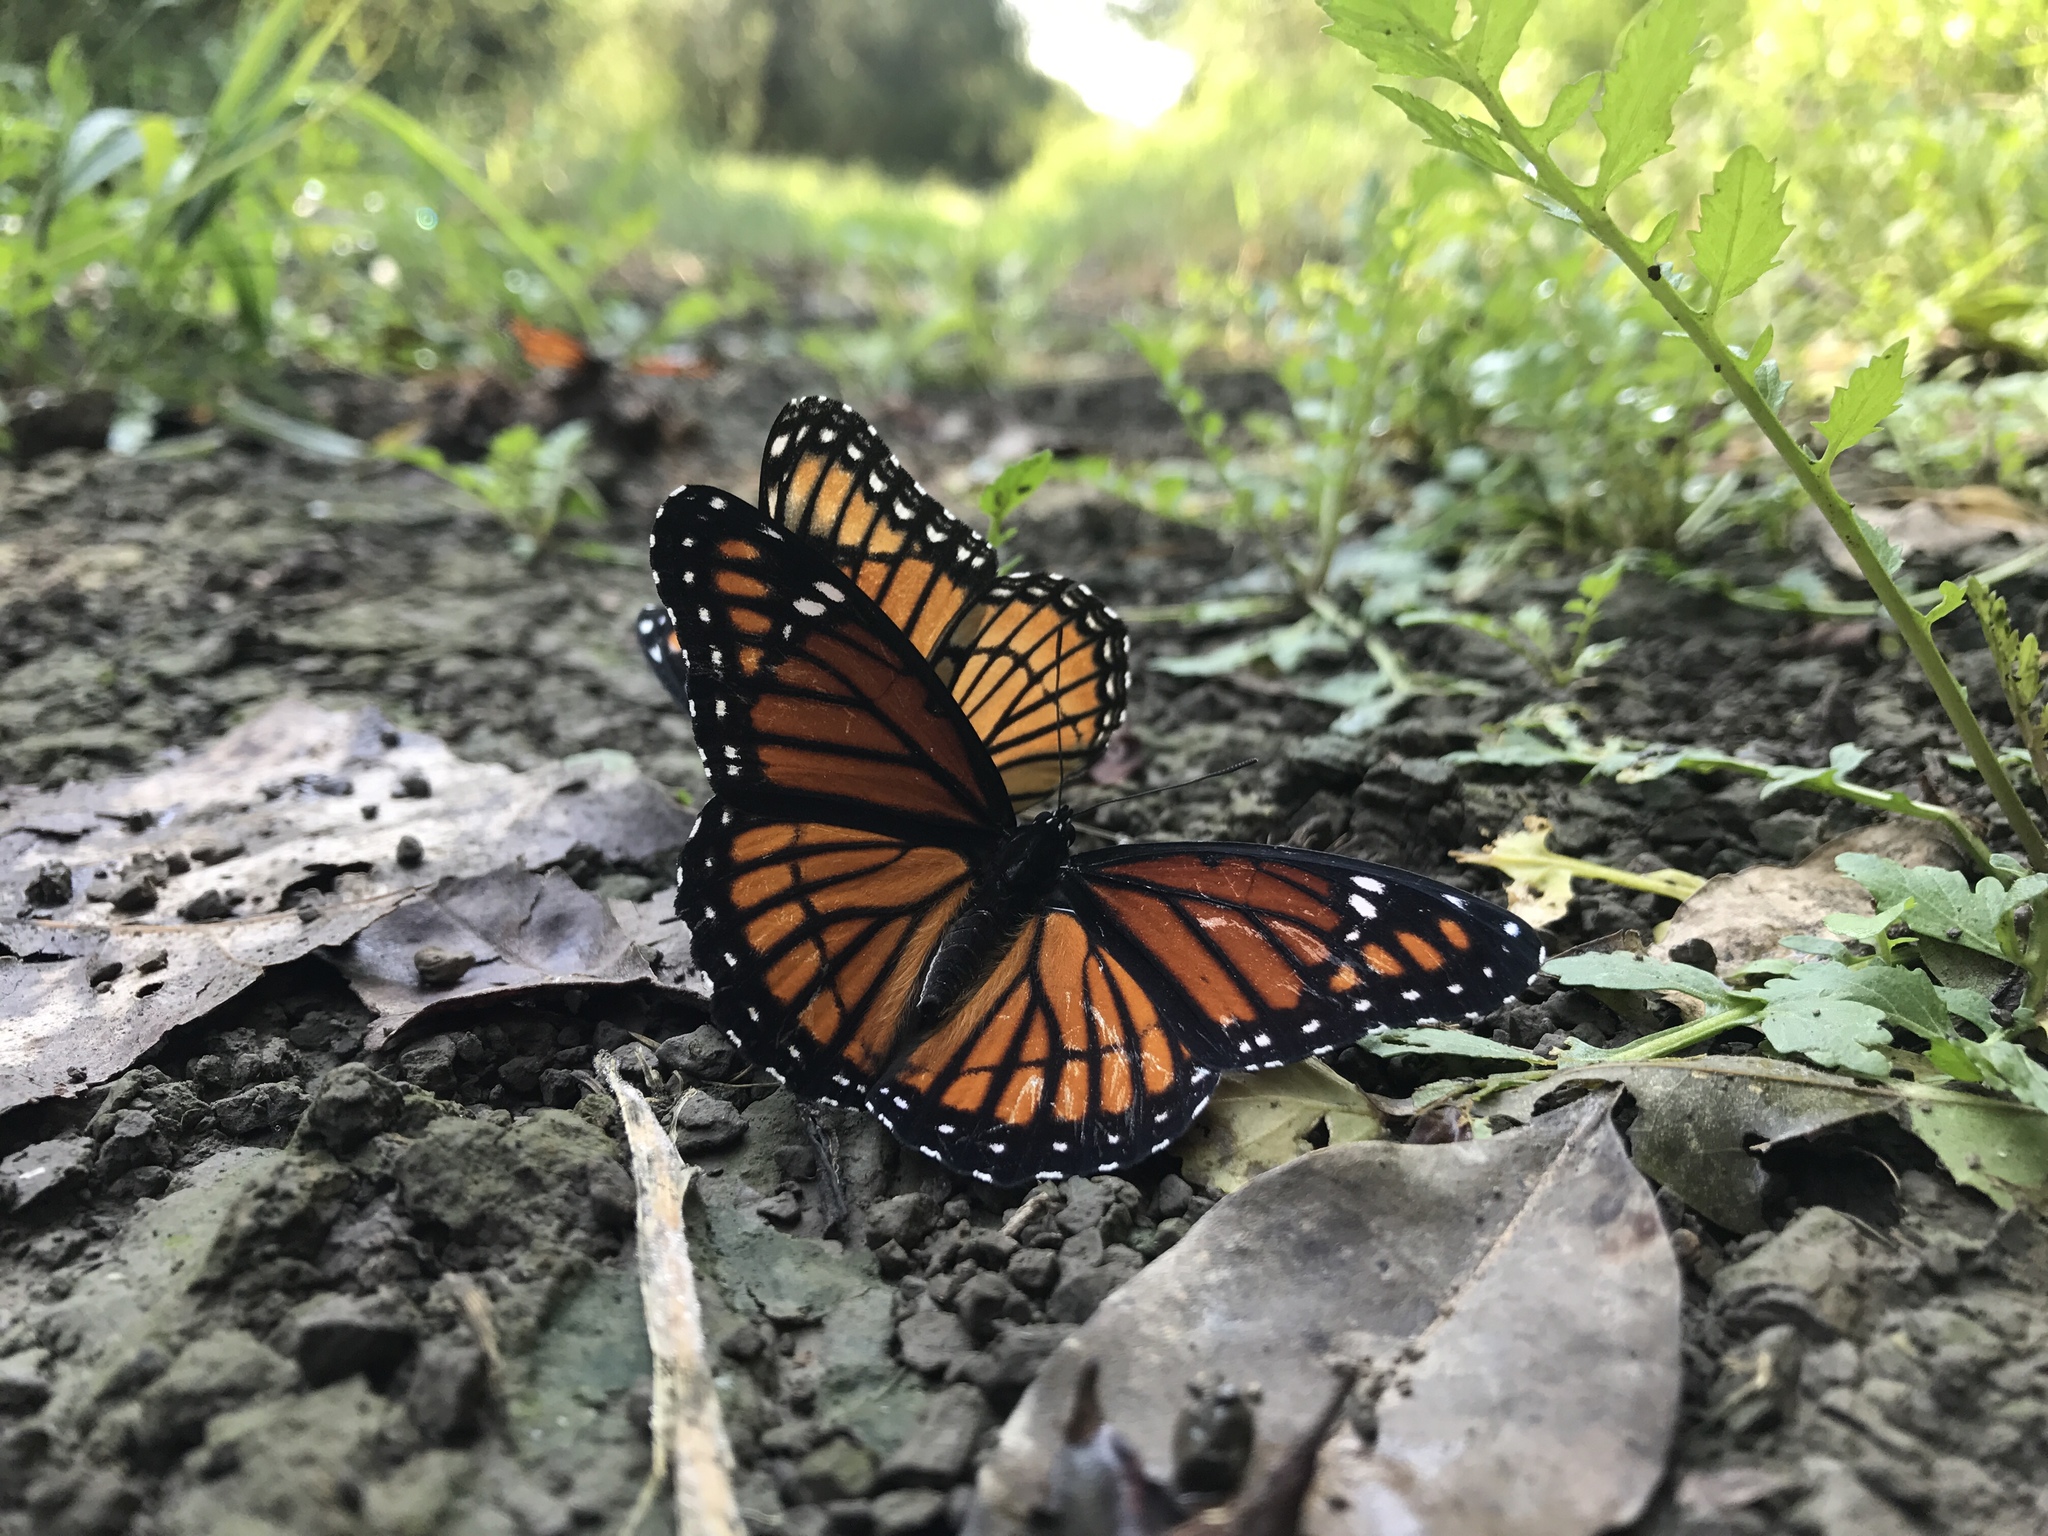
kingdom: Animalia
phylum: Arthropoda
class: Insecta
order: Lepidoptera
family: Nymphalidae
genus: Limenitis
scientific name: Limenitis archippus
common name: Viceroy
